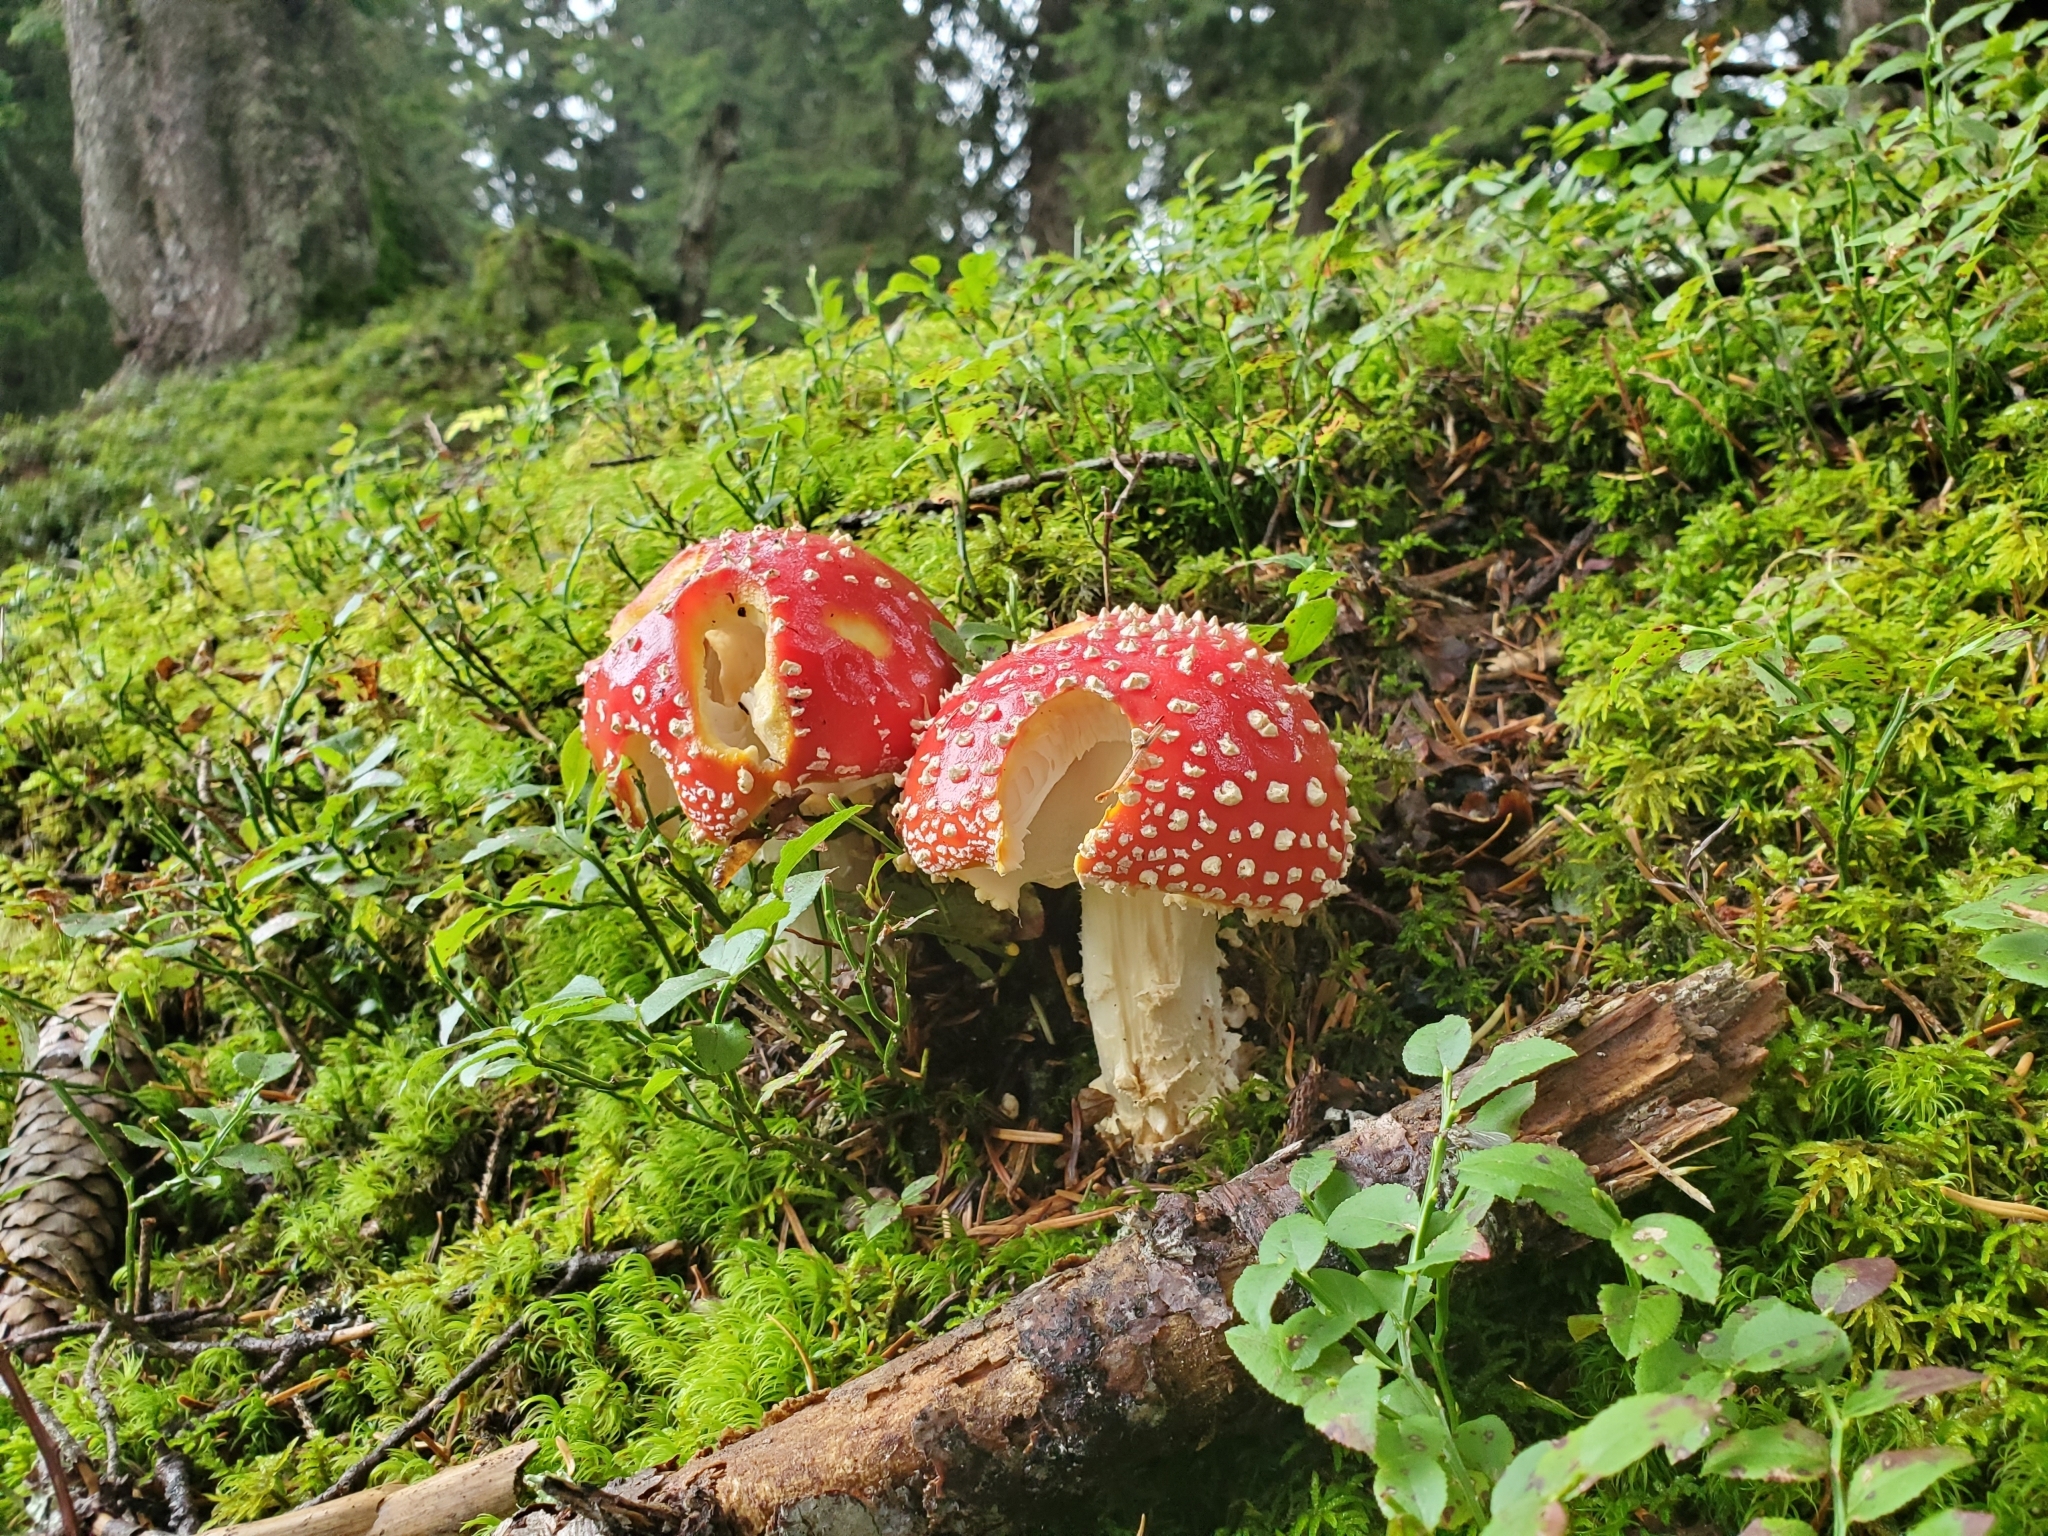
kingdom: Fungi
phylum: Basidiomycota
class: Agaricomycetes
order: Agaricales
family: Amanitaceae
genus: Amanita
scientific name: Amanita muscaria
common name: Fly agaric
